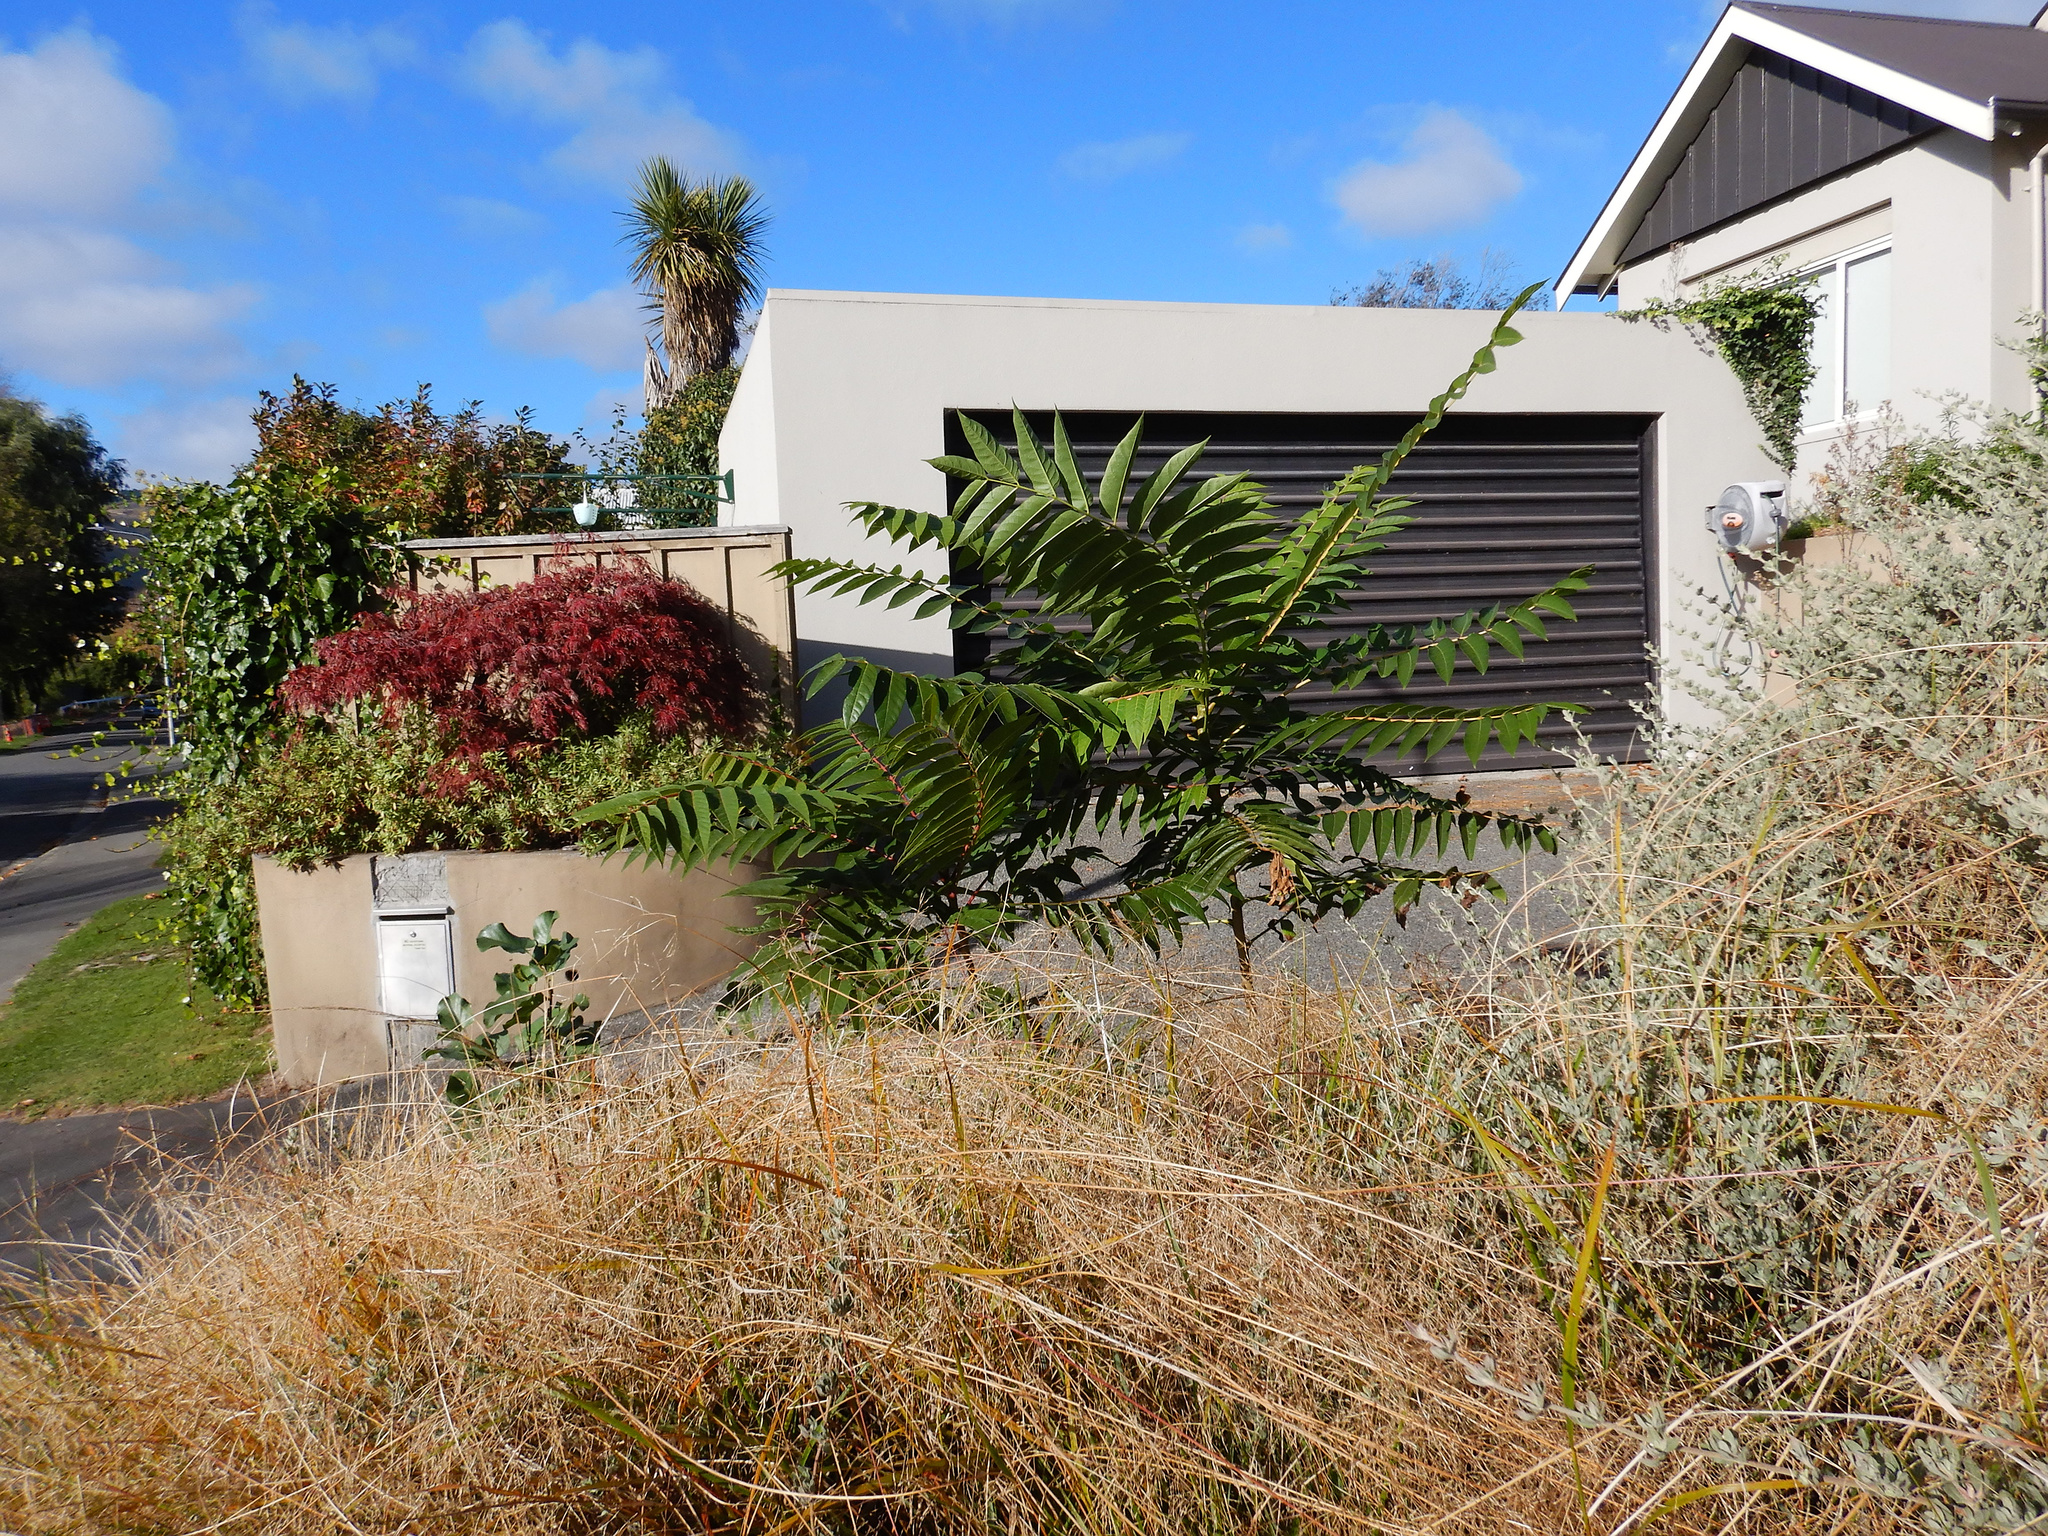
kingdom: Plantae
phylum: Tracheophyta
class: Magnoliopsida
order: Sapindales
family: Simaroubaceae
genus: Ailanthus
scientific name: Ailanthus altissima
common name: Tree-of-heaven
